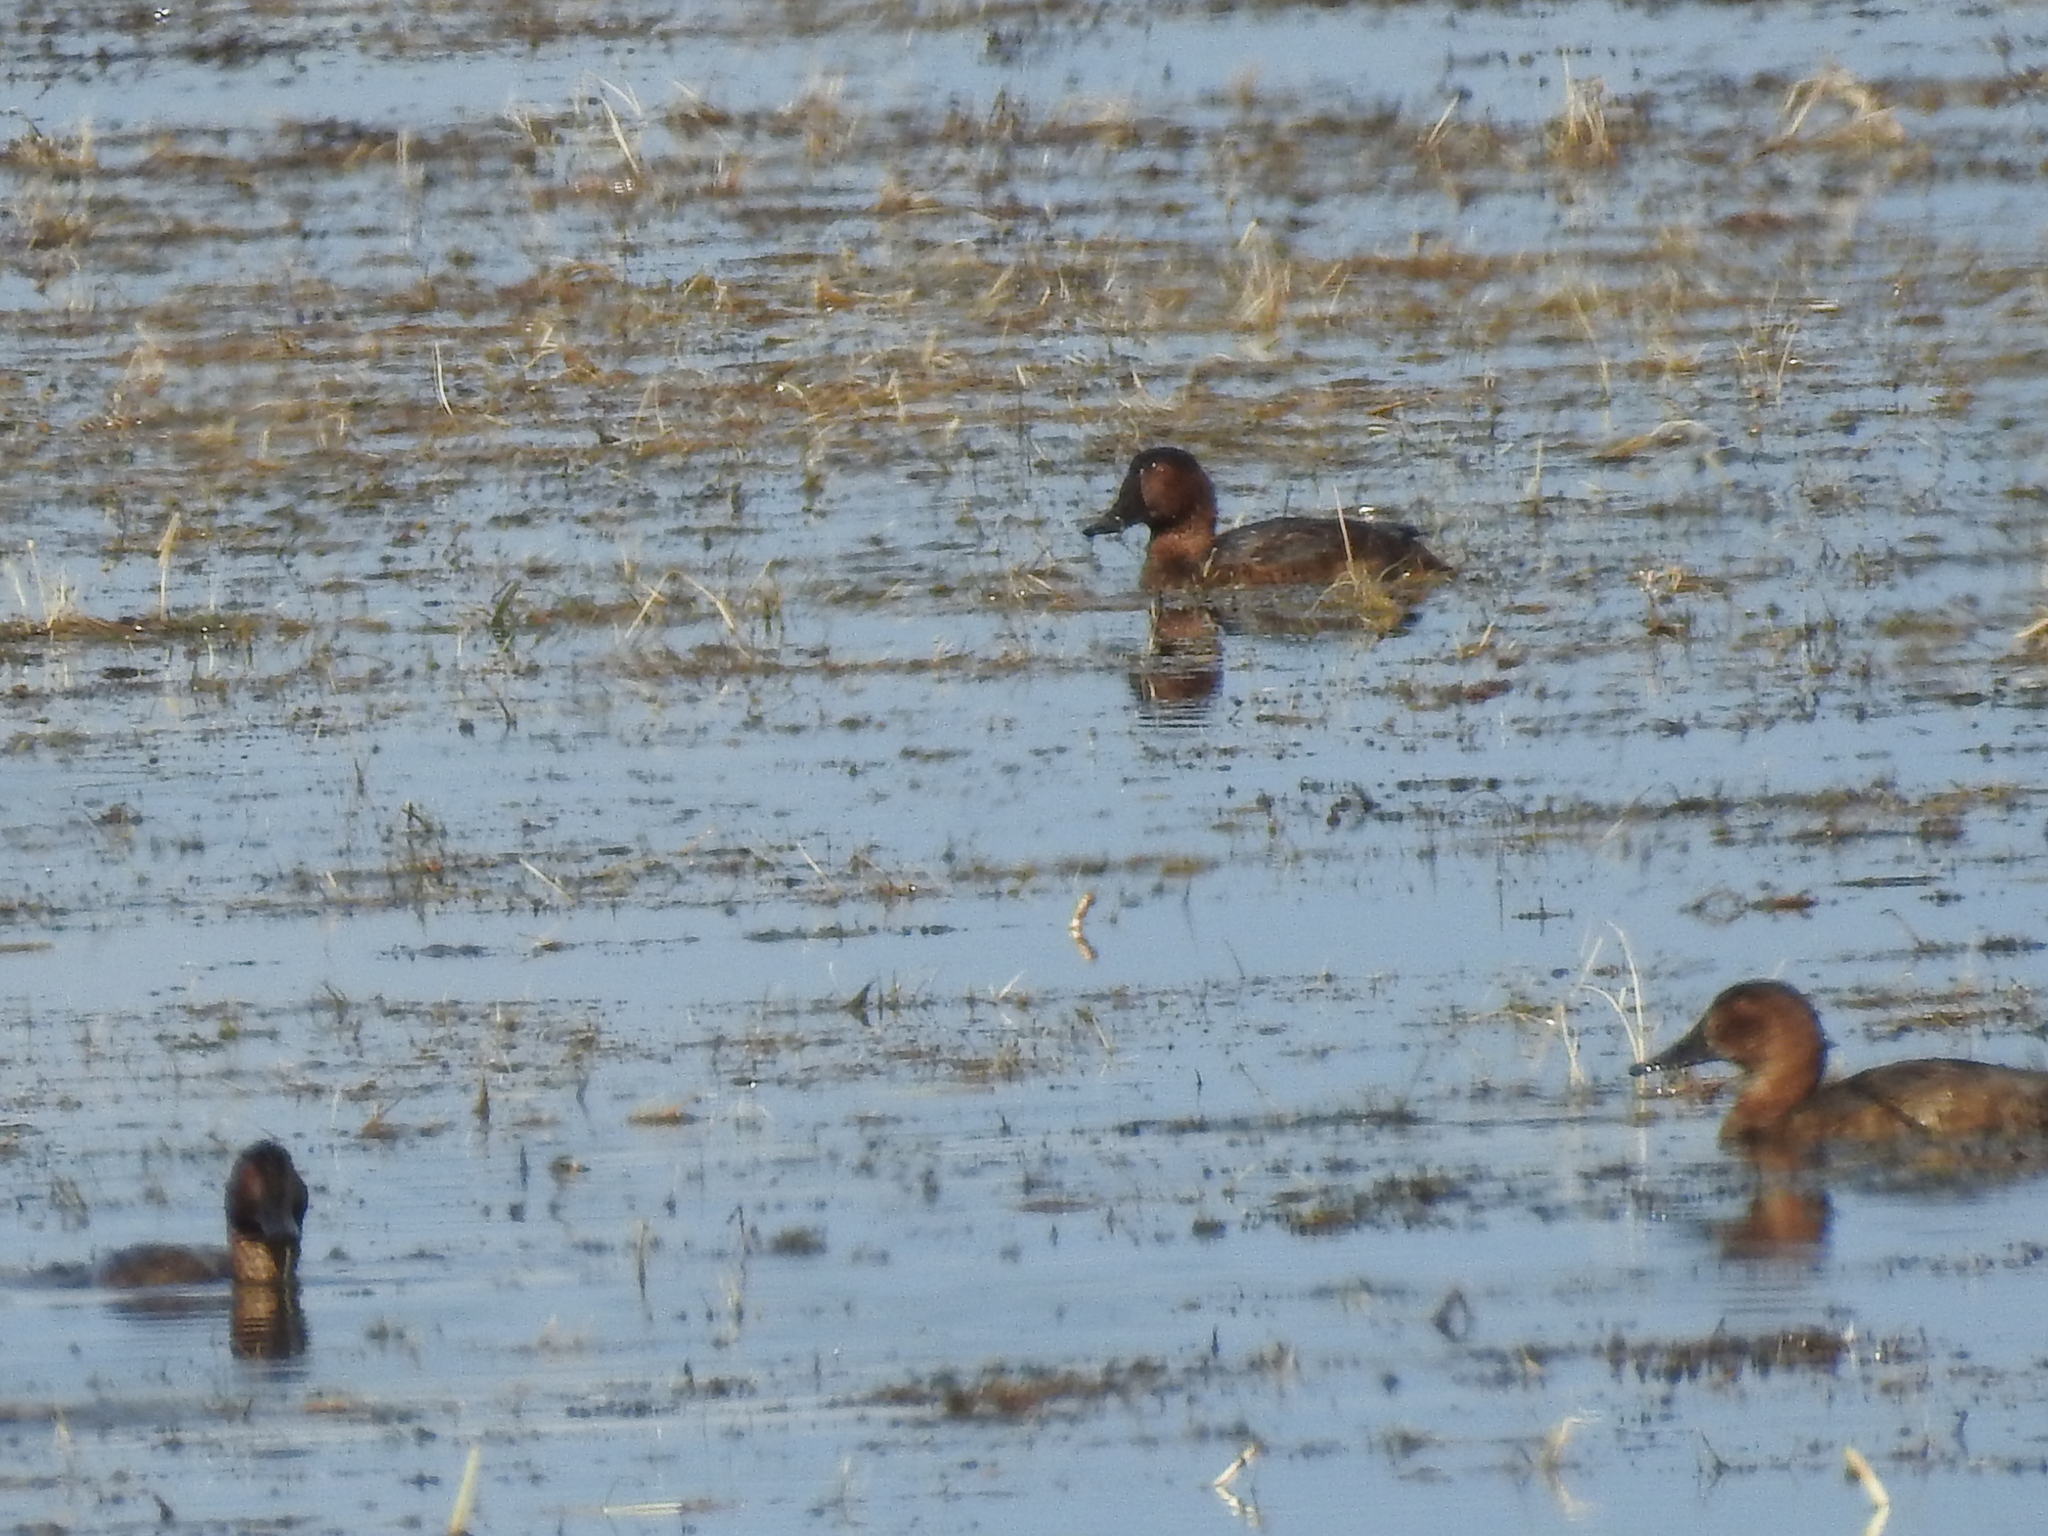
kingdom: Animalia
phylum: Chordata
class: Aves
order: Anseriformes
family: Anatidae
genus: Aythya
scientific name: Aythya ferina
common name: Common pochard
